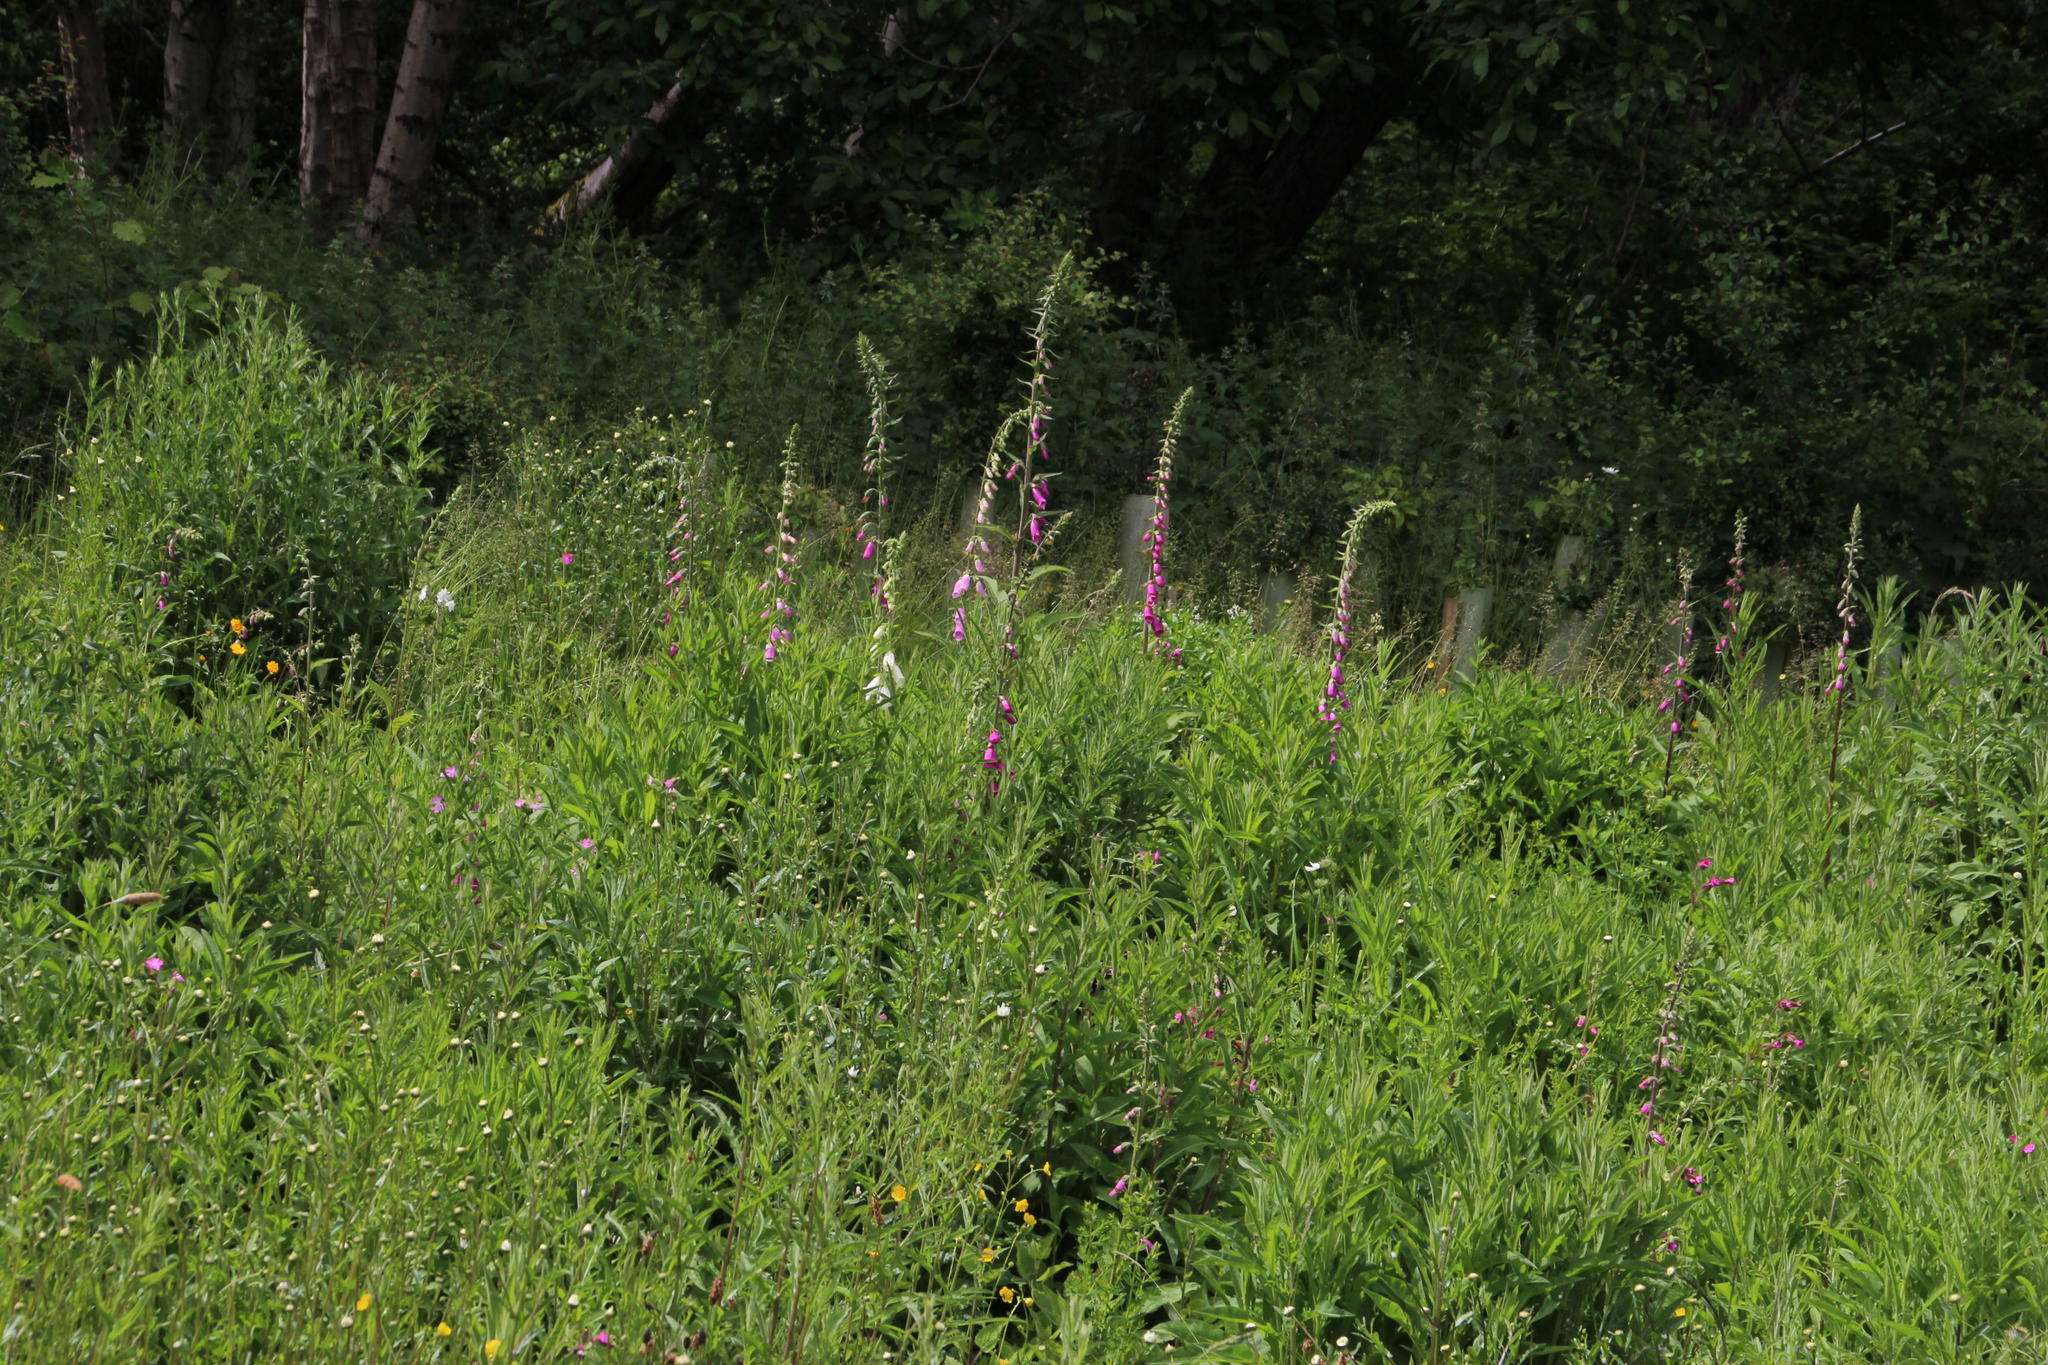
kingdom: Plantae
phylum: Tracheophyta
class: Magnoliopsida
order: Lamiales
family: Plantaginaceae
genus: Digitalis
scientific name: Digitalis purpurea
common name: Foxglove
